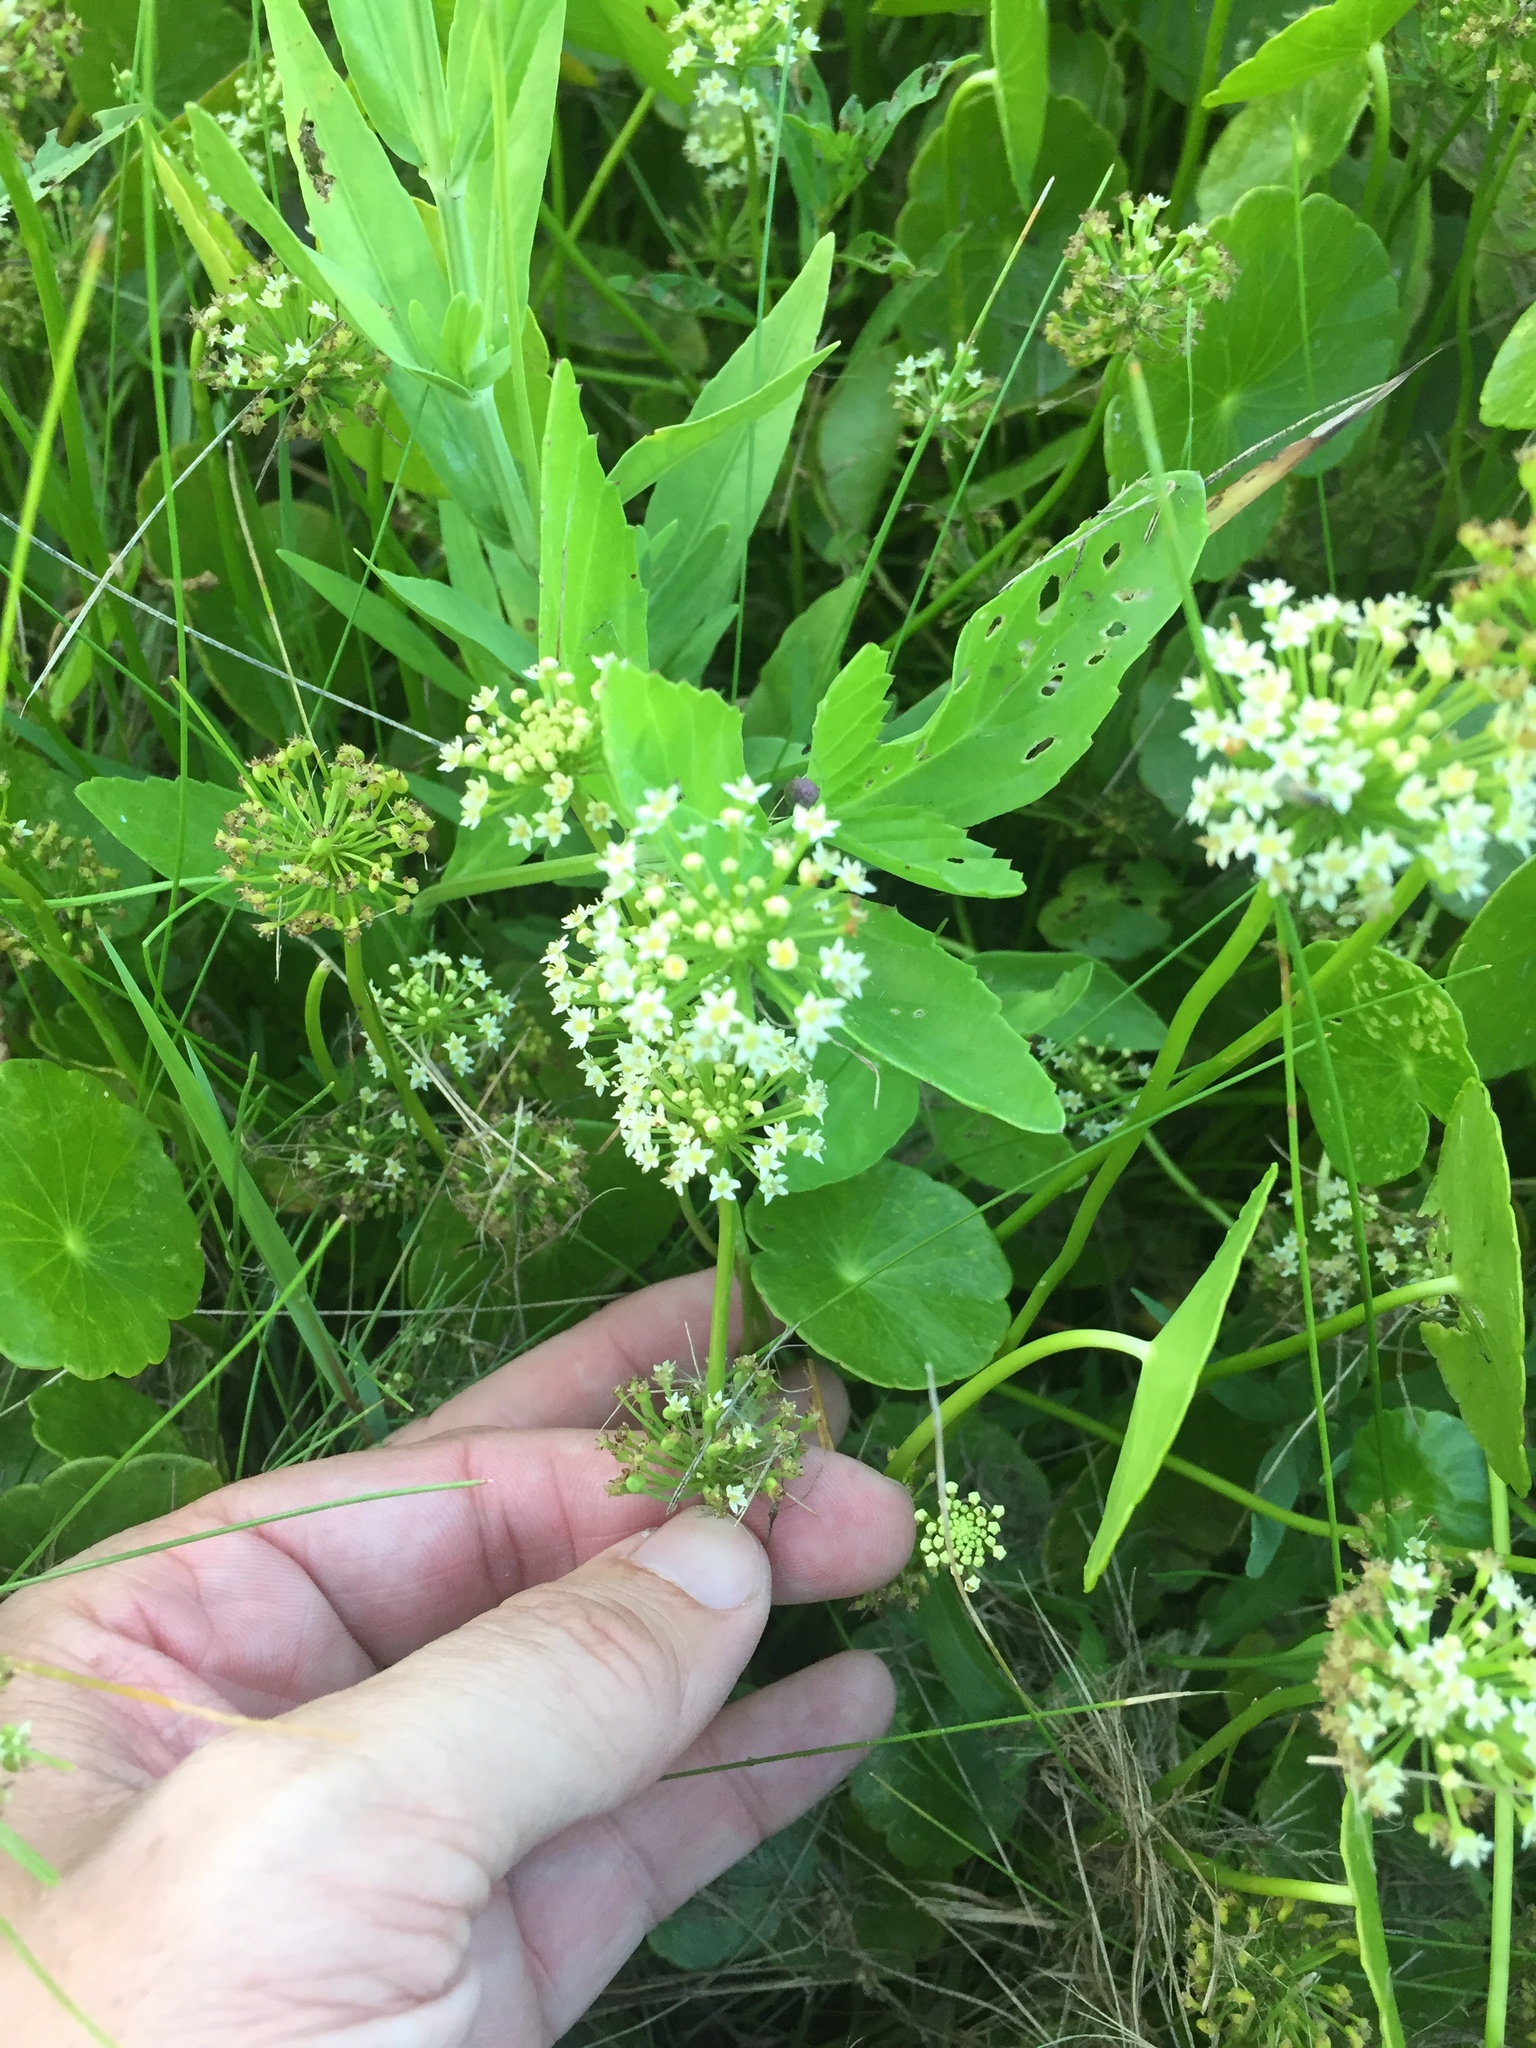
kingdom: Plantae
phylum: Tracheophyta
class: Magnoliopsida
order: Apiales
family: Araliaceae
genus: Hydrocotyle
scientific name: Hydrocotyle umbellata
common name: Water pennywort
